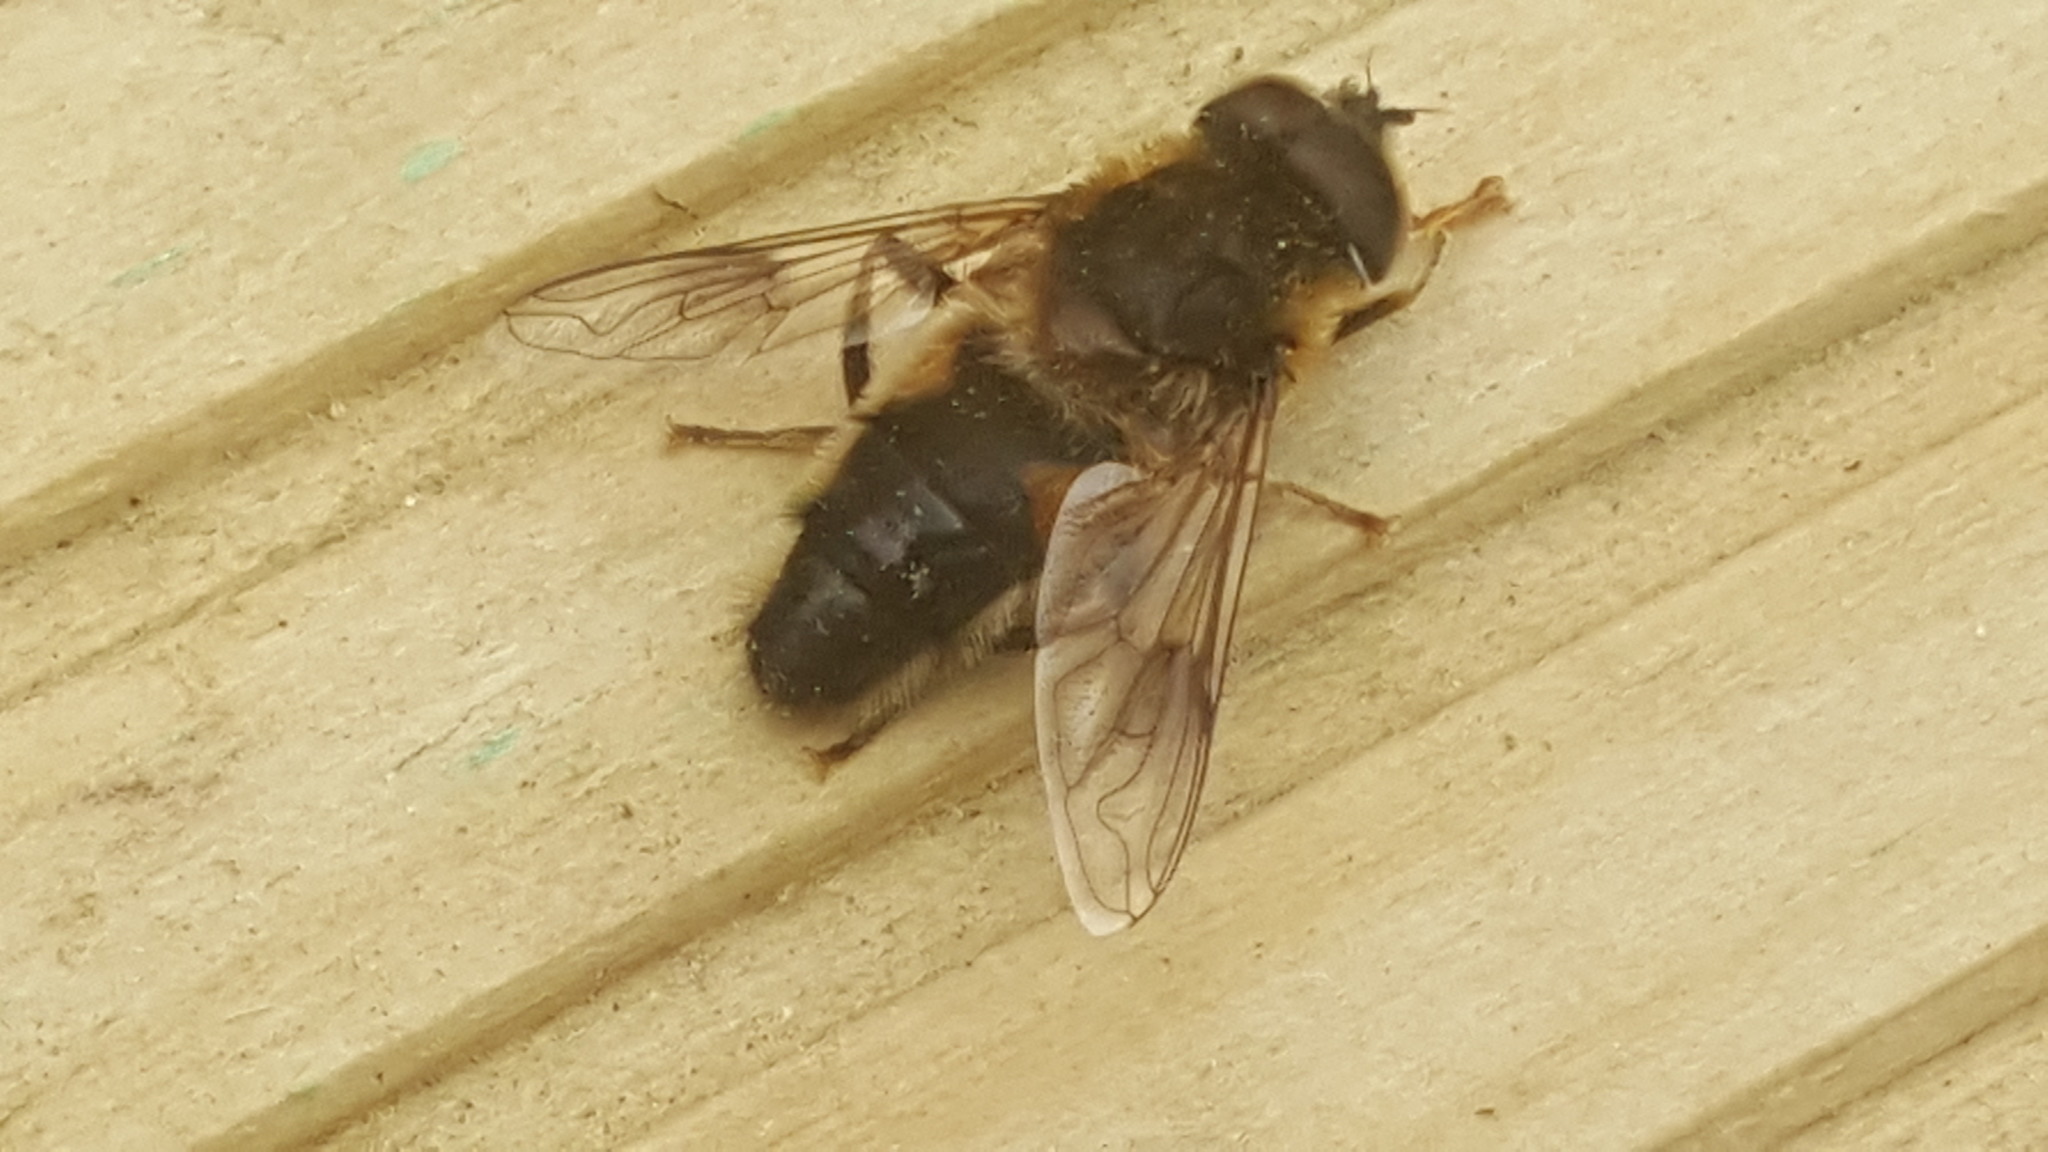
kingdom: Animalia
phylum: Arthropoda
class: Insecta
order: Diptera
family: Syrphidae
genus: Eristalis
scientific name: Eristalis pertinax
